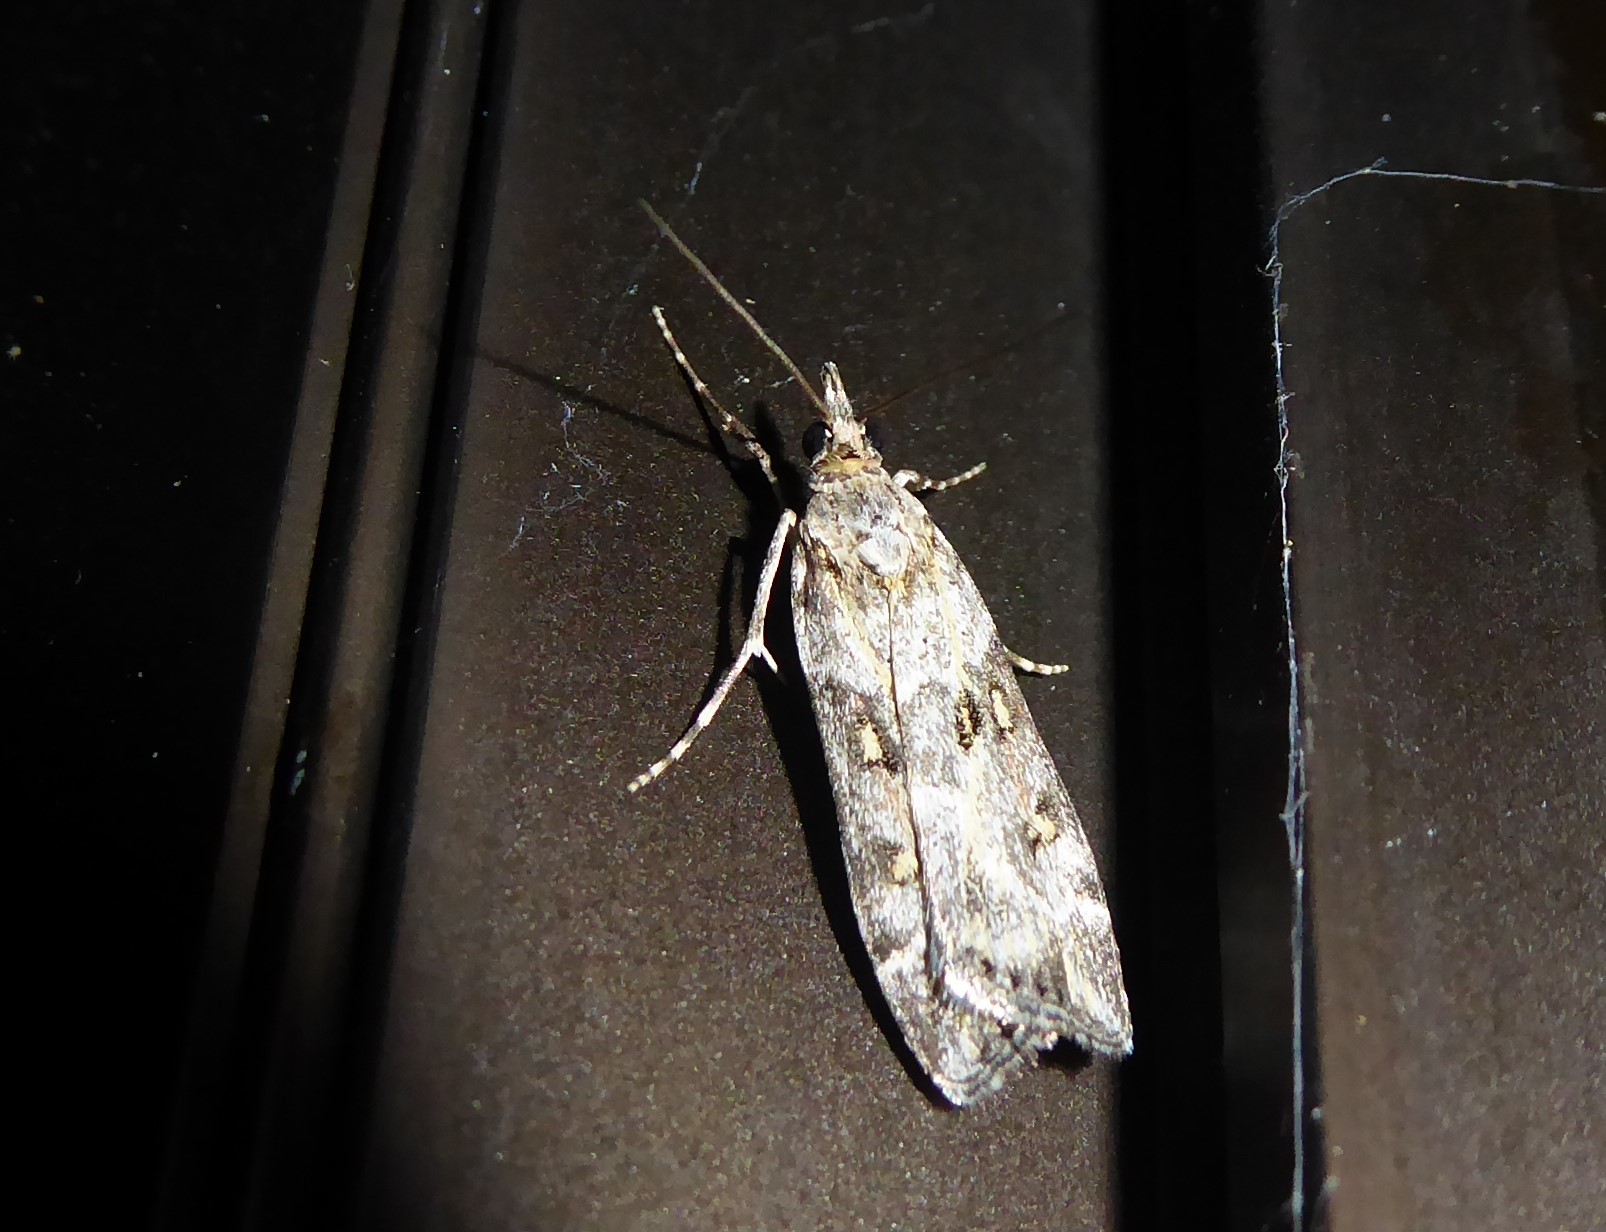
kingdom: Animalia
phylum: Arthropoda
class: Insecta
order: Lepidoptera
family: Crambidae
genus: Eudonia
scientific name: Eudonia diphtheralis
